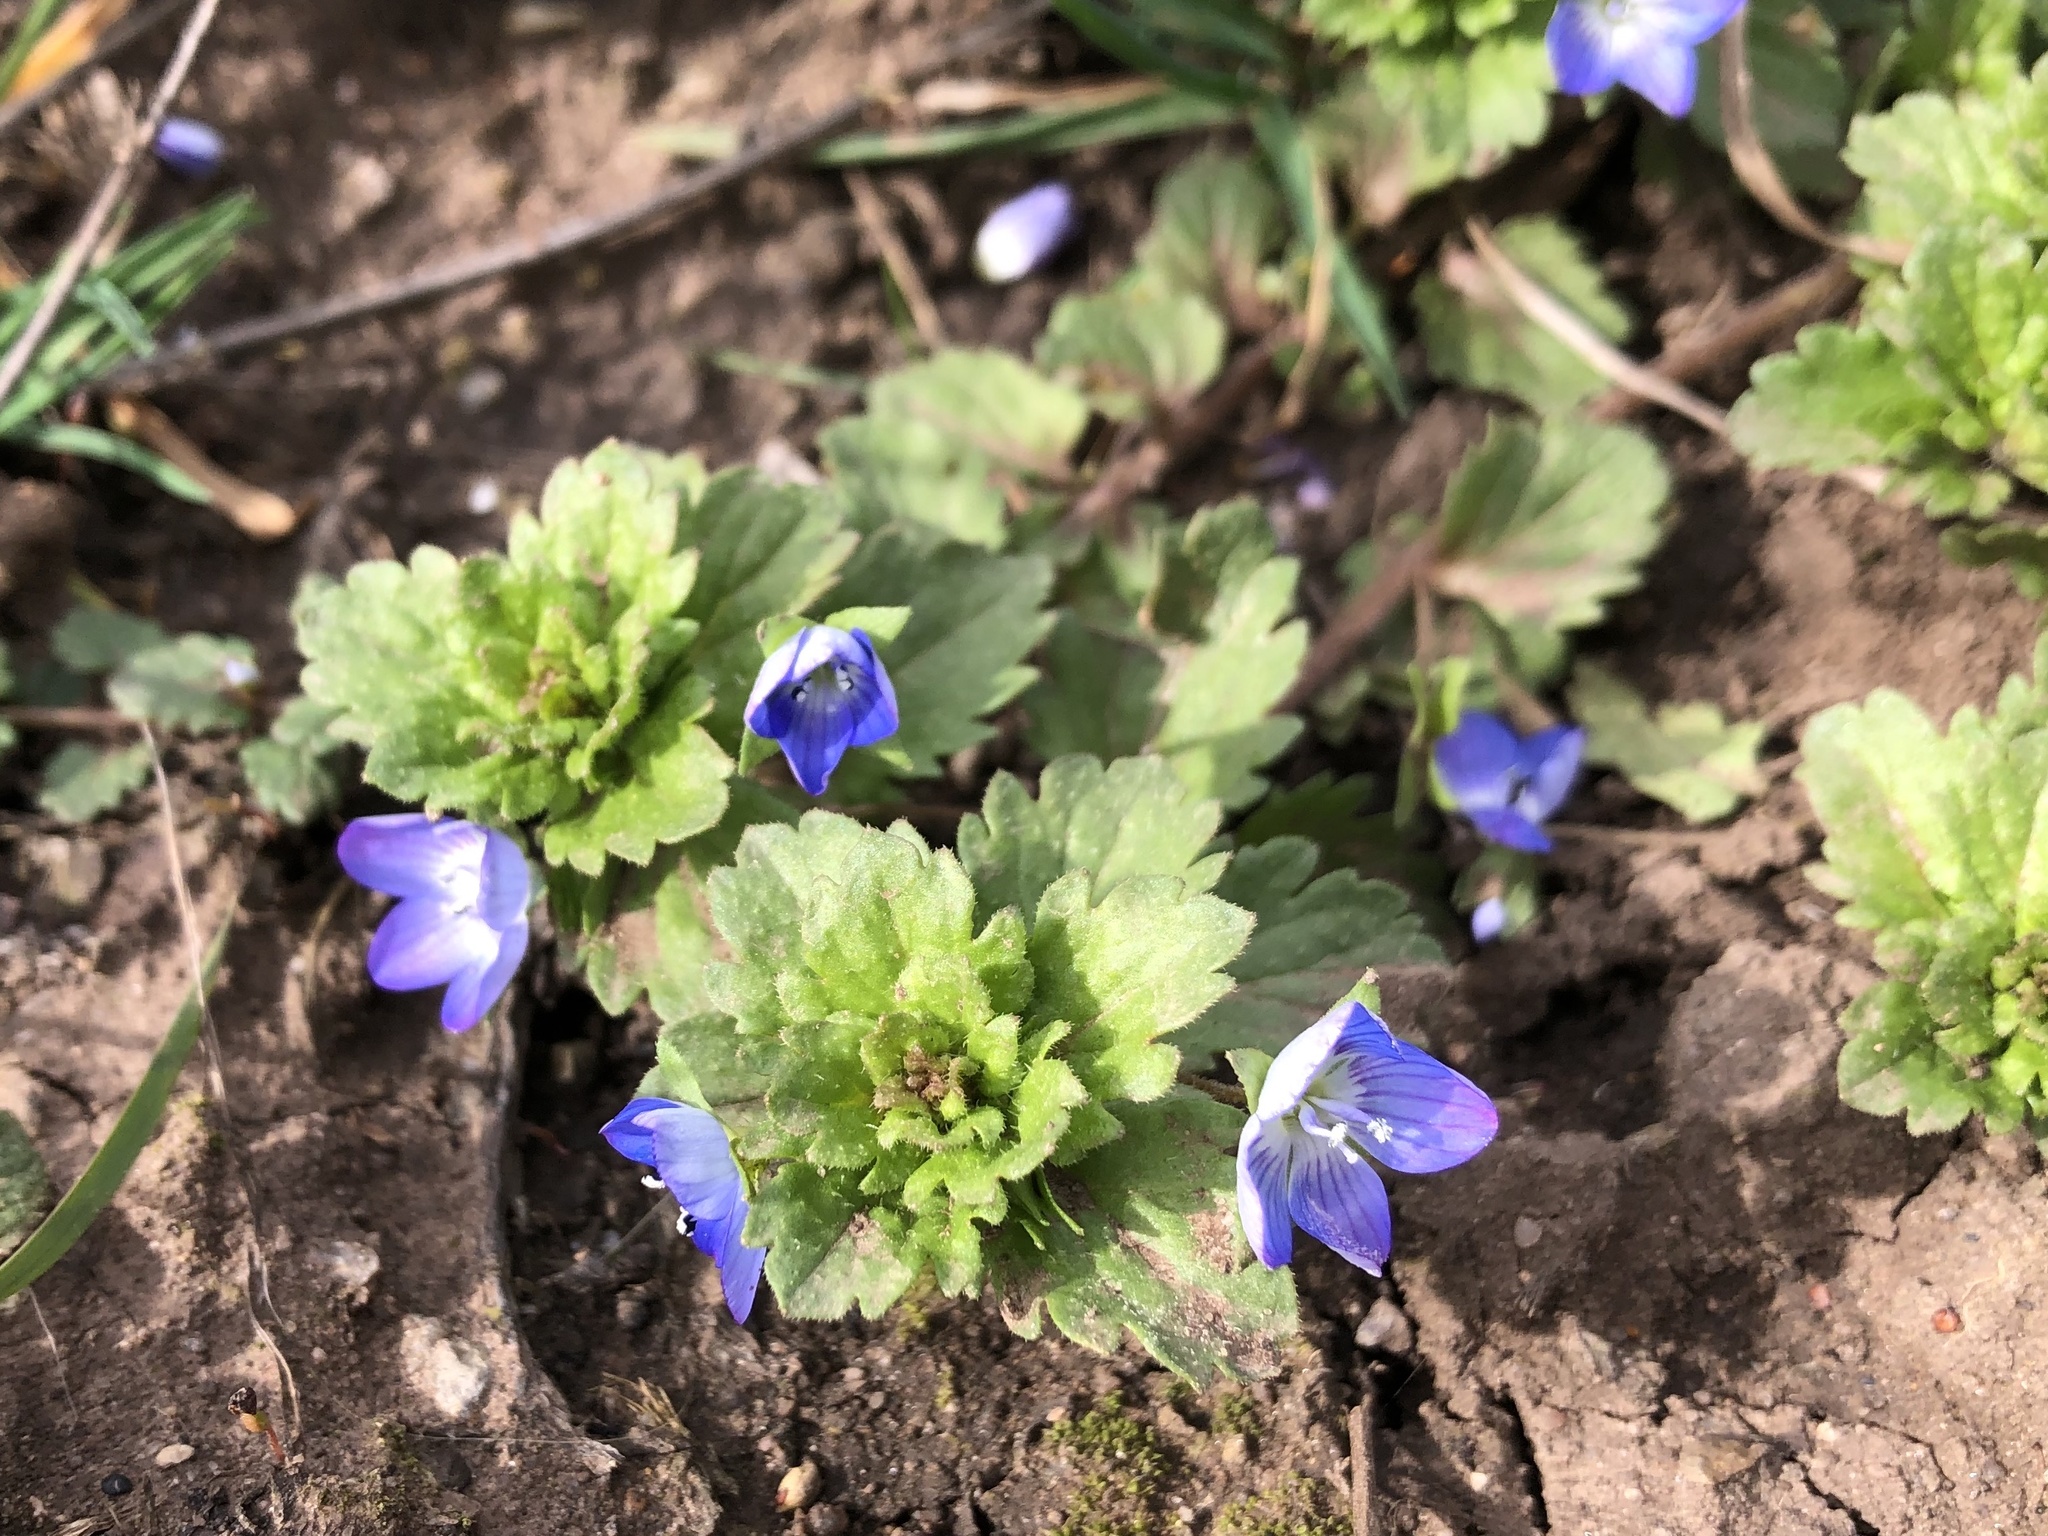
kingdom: Plantae
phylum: Tracheophyta
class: Magnoliopsida
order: Lamiales
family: Plantaginaceae
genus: Veronica
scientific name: Veronica persica
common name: Common field-speedwell
